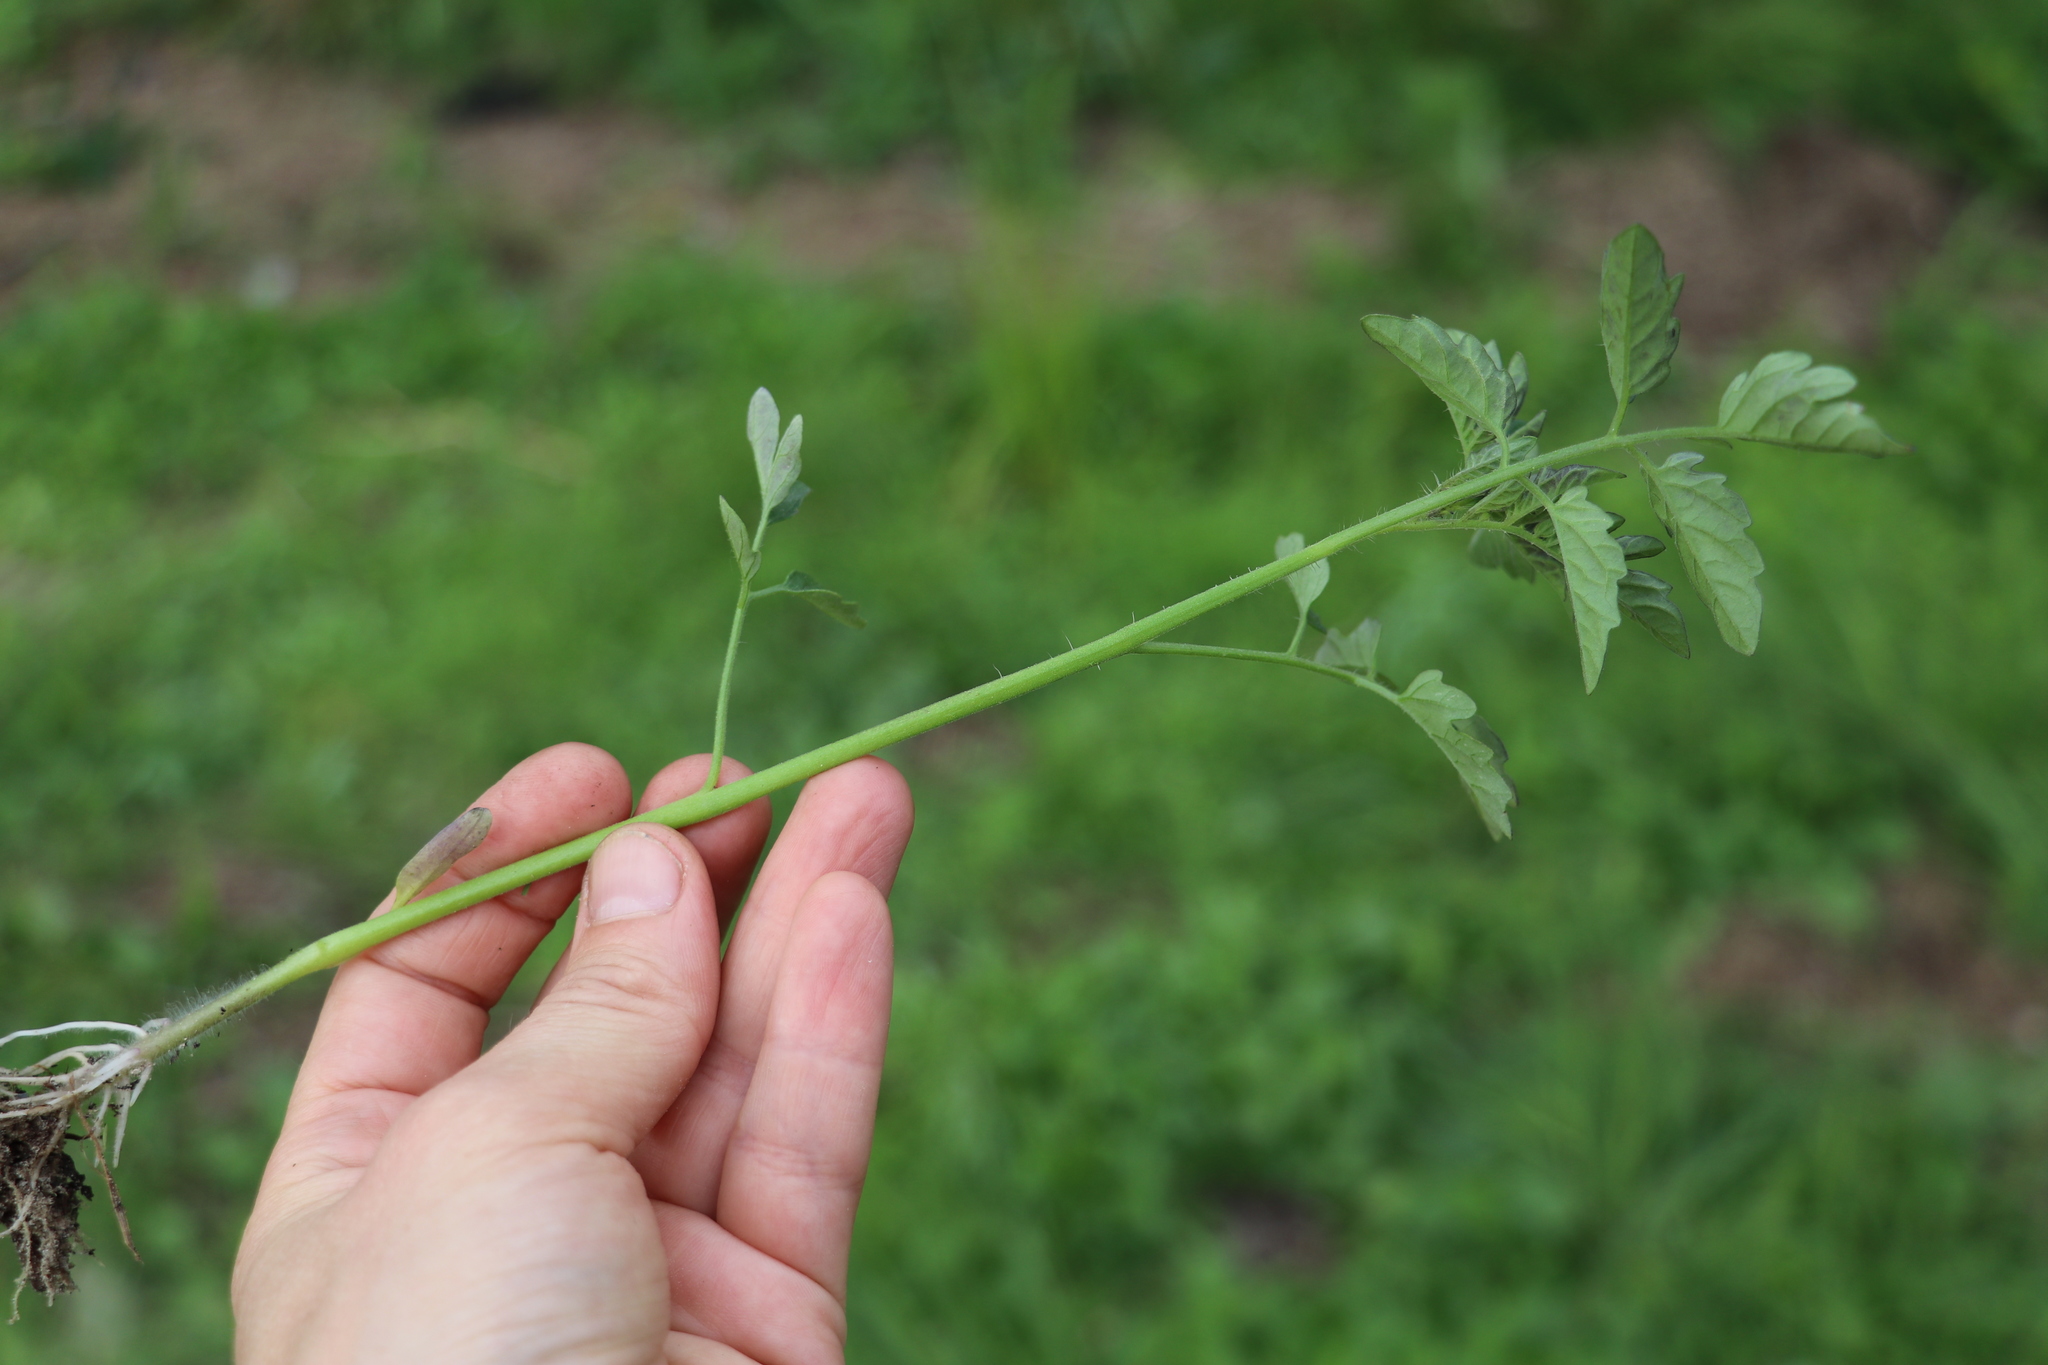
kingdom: Plantae
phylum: Tracheophyta
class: Magnoliopsida
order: Solanales
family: Solanaceae
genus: Solanum
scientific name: Solanum lycopersicum
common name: Garden tomato
